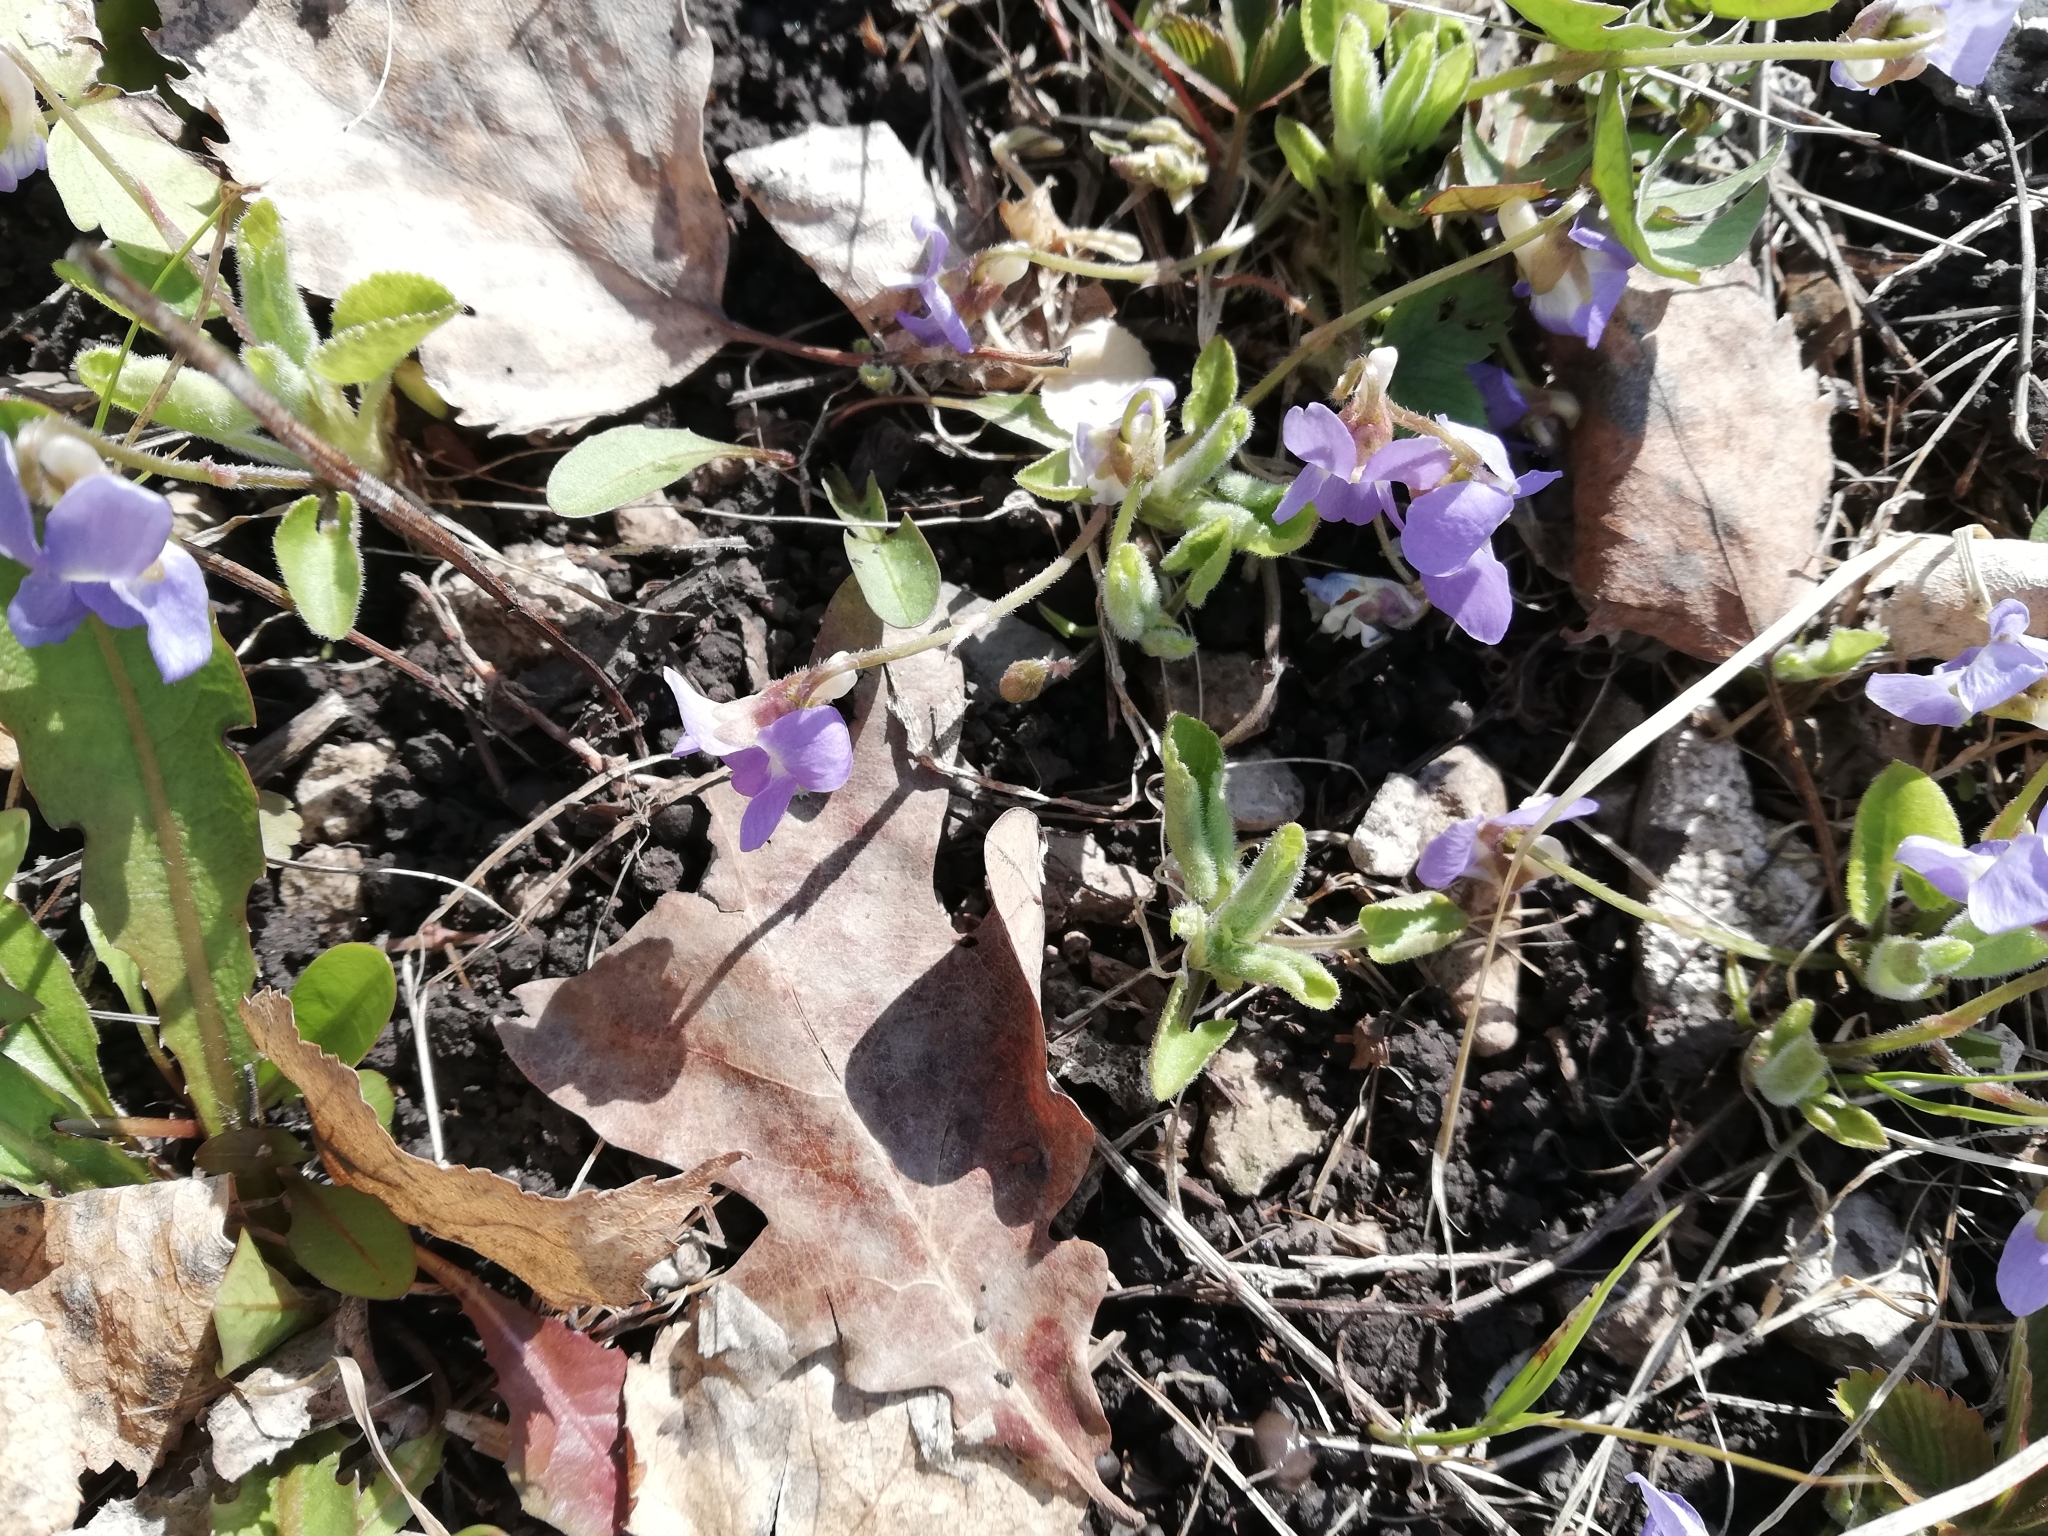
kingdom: Plantae
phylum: Tracheophyta
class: Magnoliopsida
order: Malpighiales
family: Violaceae
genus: Viola
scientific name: Viola collina
